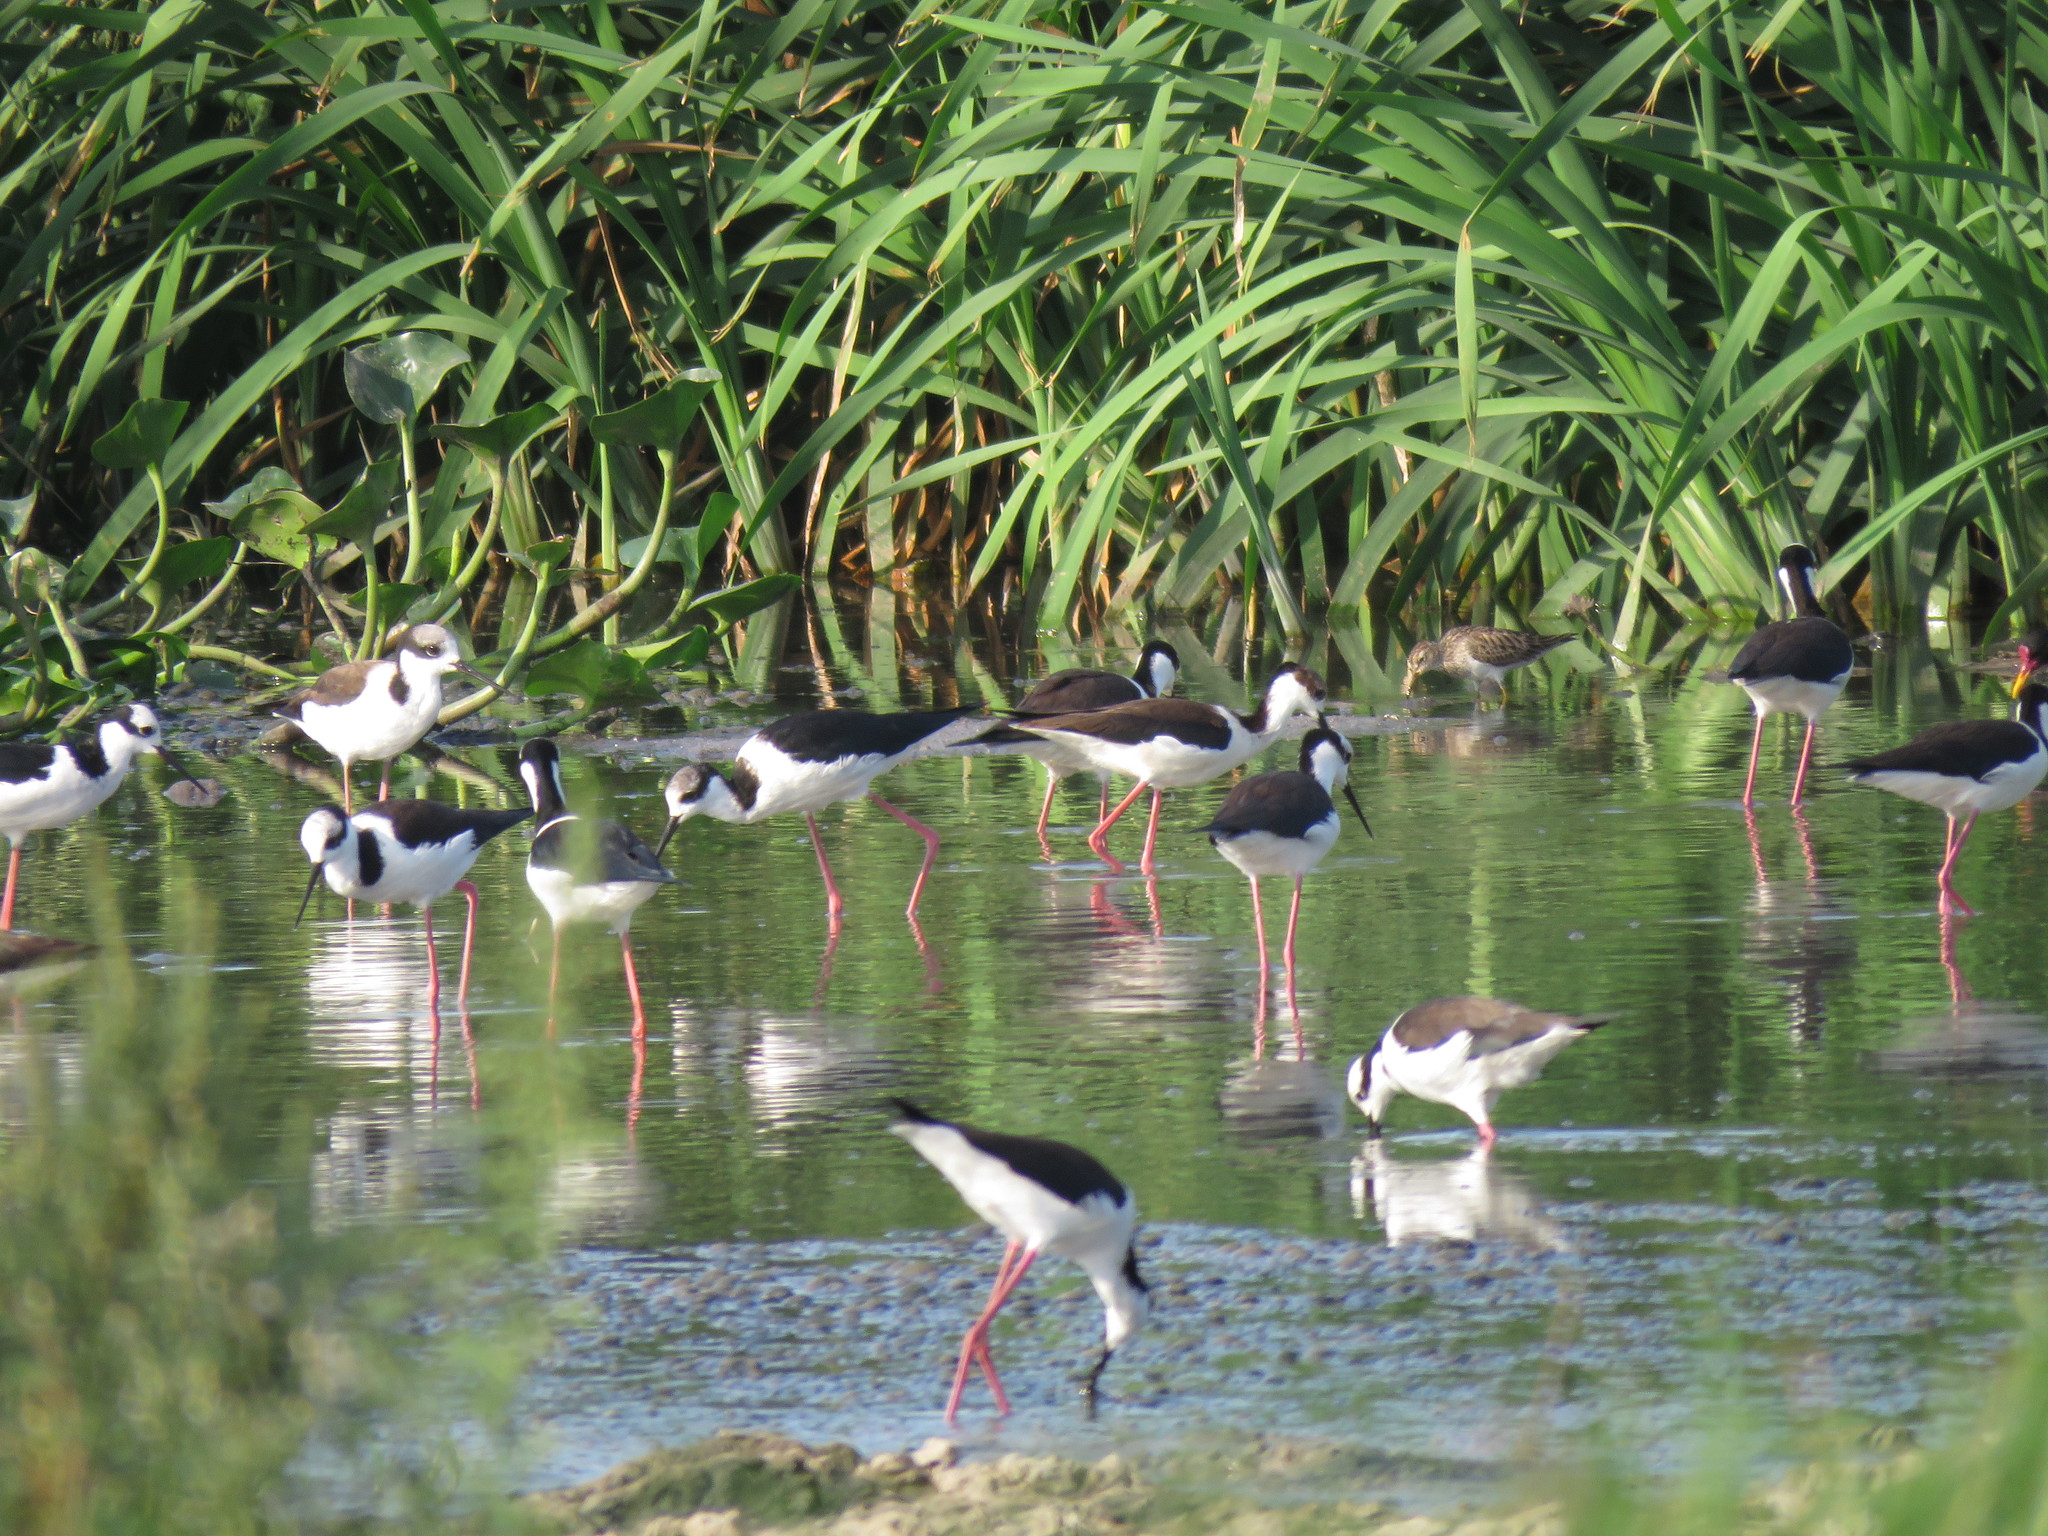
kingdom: Animalia
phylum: Chordata
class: Aves
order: Charadriiformes
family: Scolopacidae
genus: Calidris
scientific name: Calidris melanotos
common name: Pectoral sandpiper
